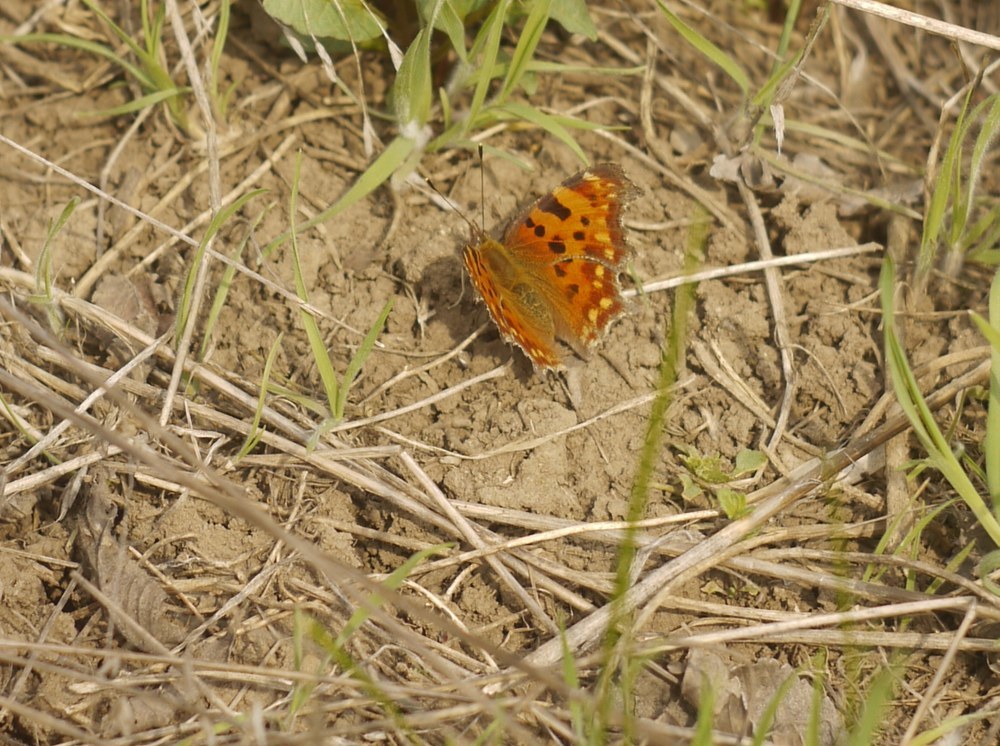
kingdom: Animalia
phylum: Arthropoda
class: Insecta
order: Lepidoptera
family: Nymphalidae
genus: Polygonia
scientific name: Polygonia c-album
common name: Comma
